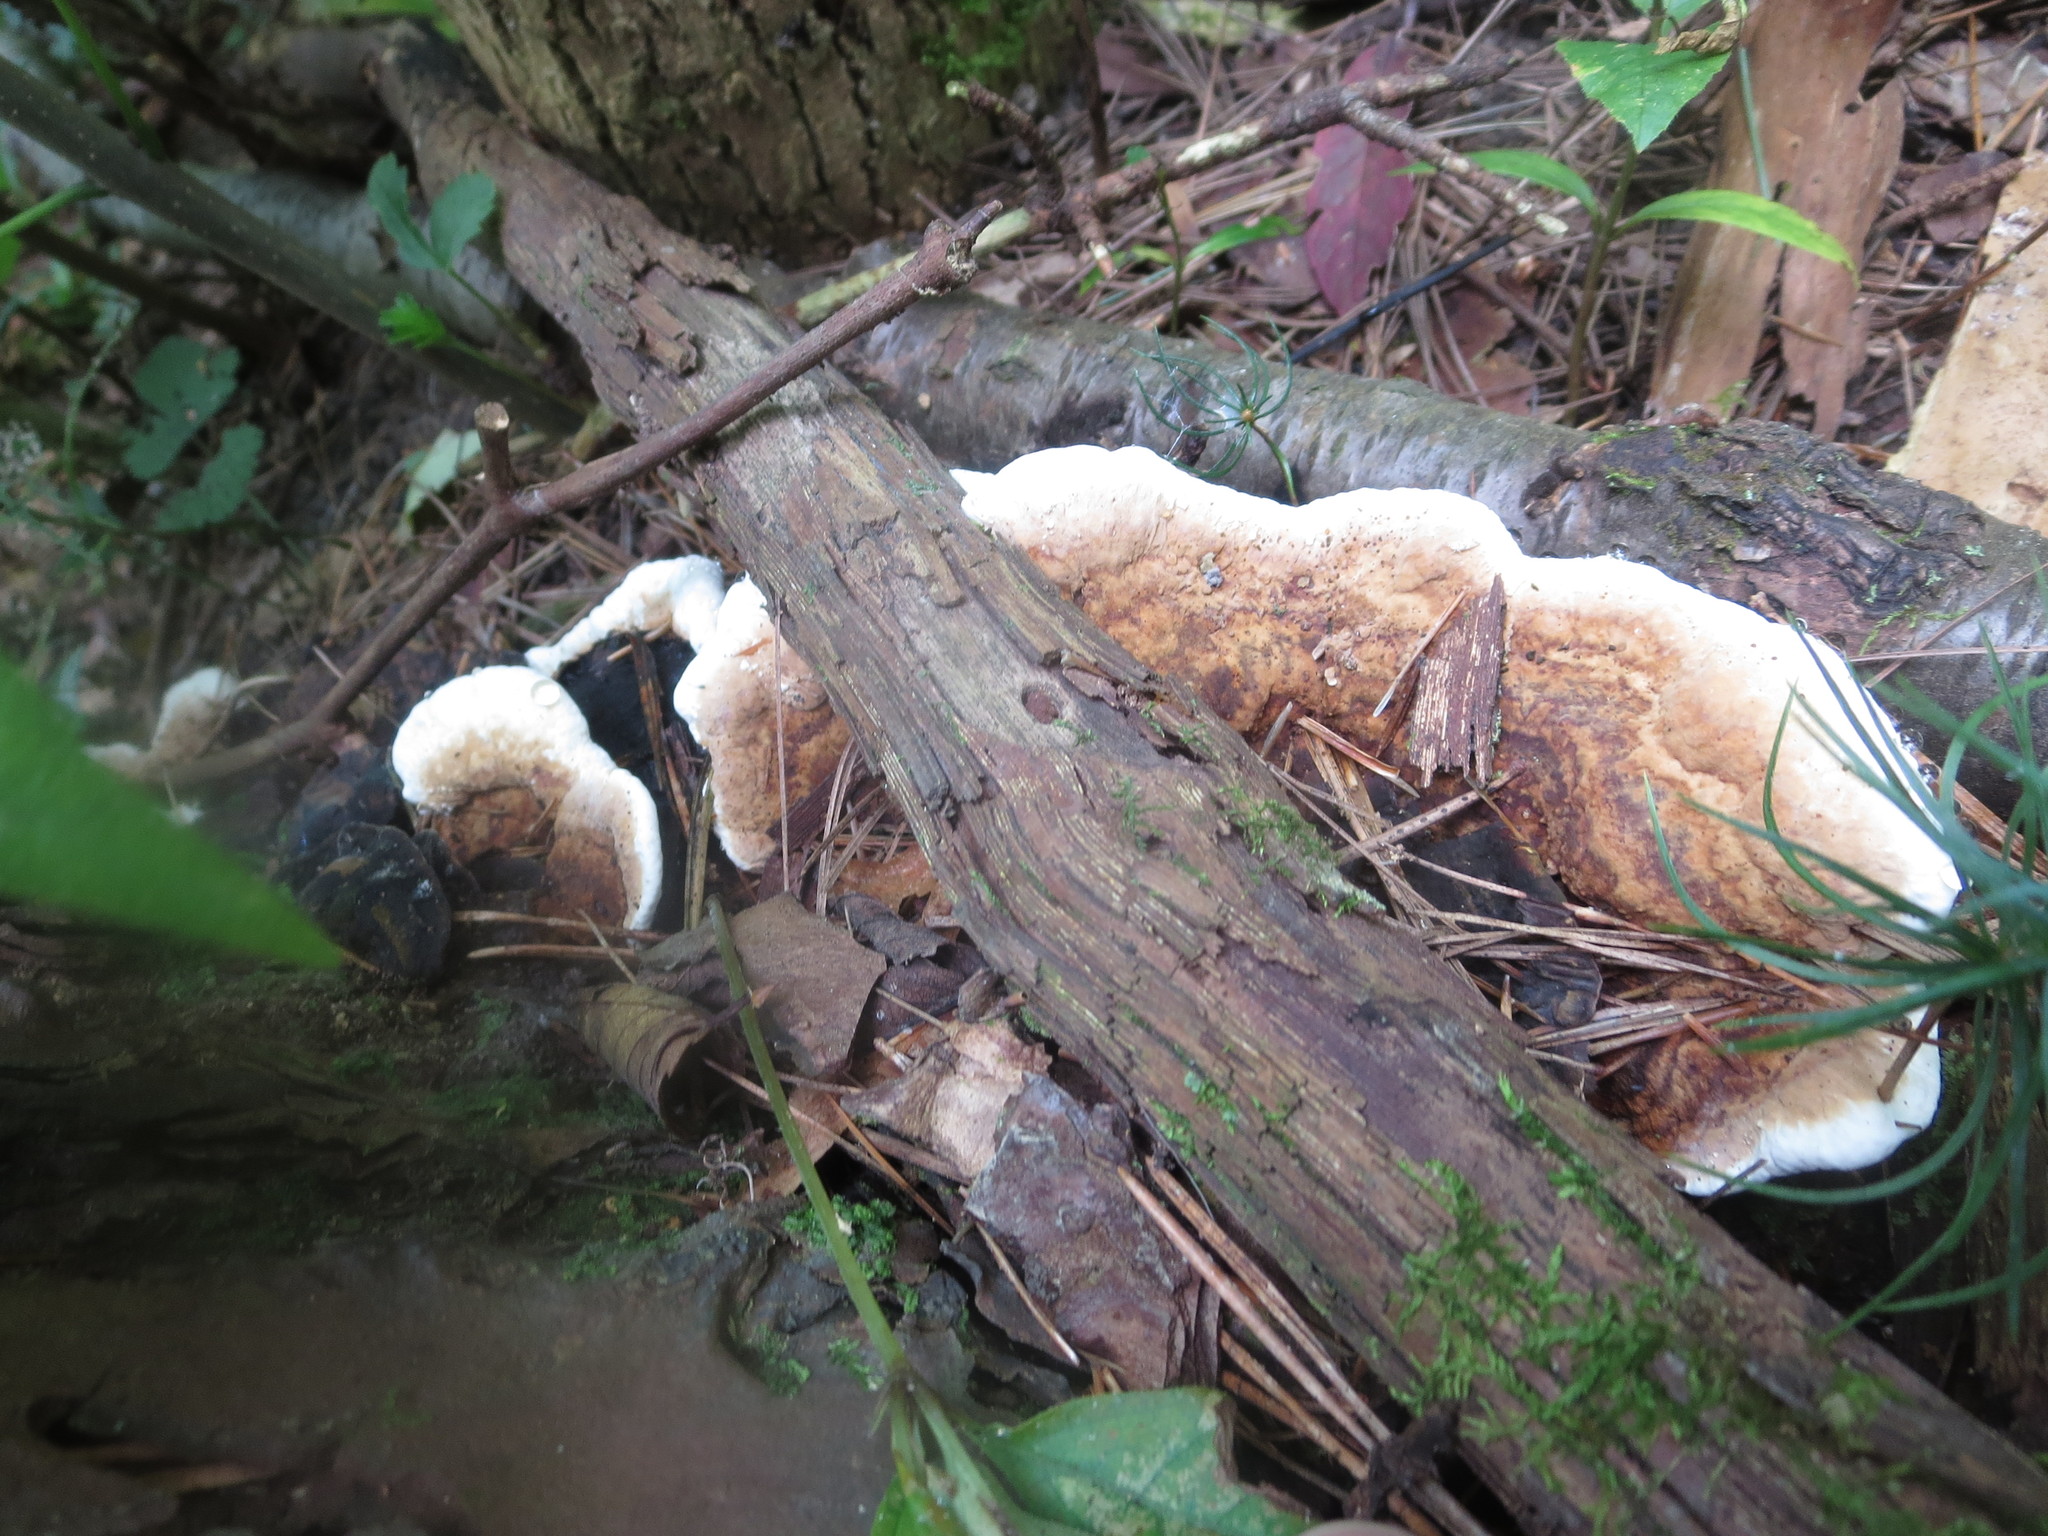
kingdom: Fungi
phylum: Basidiomycota
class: Agaricomycetes
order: Russulales
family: Bondarzewiaceae
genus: Heterobasidion
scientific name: Heterobasidion irregulare
